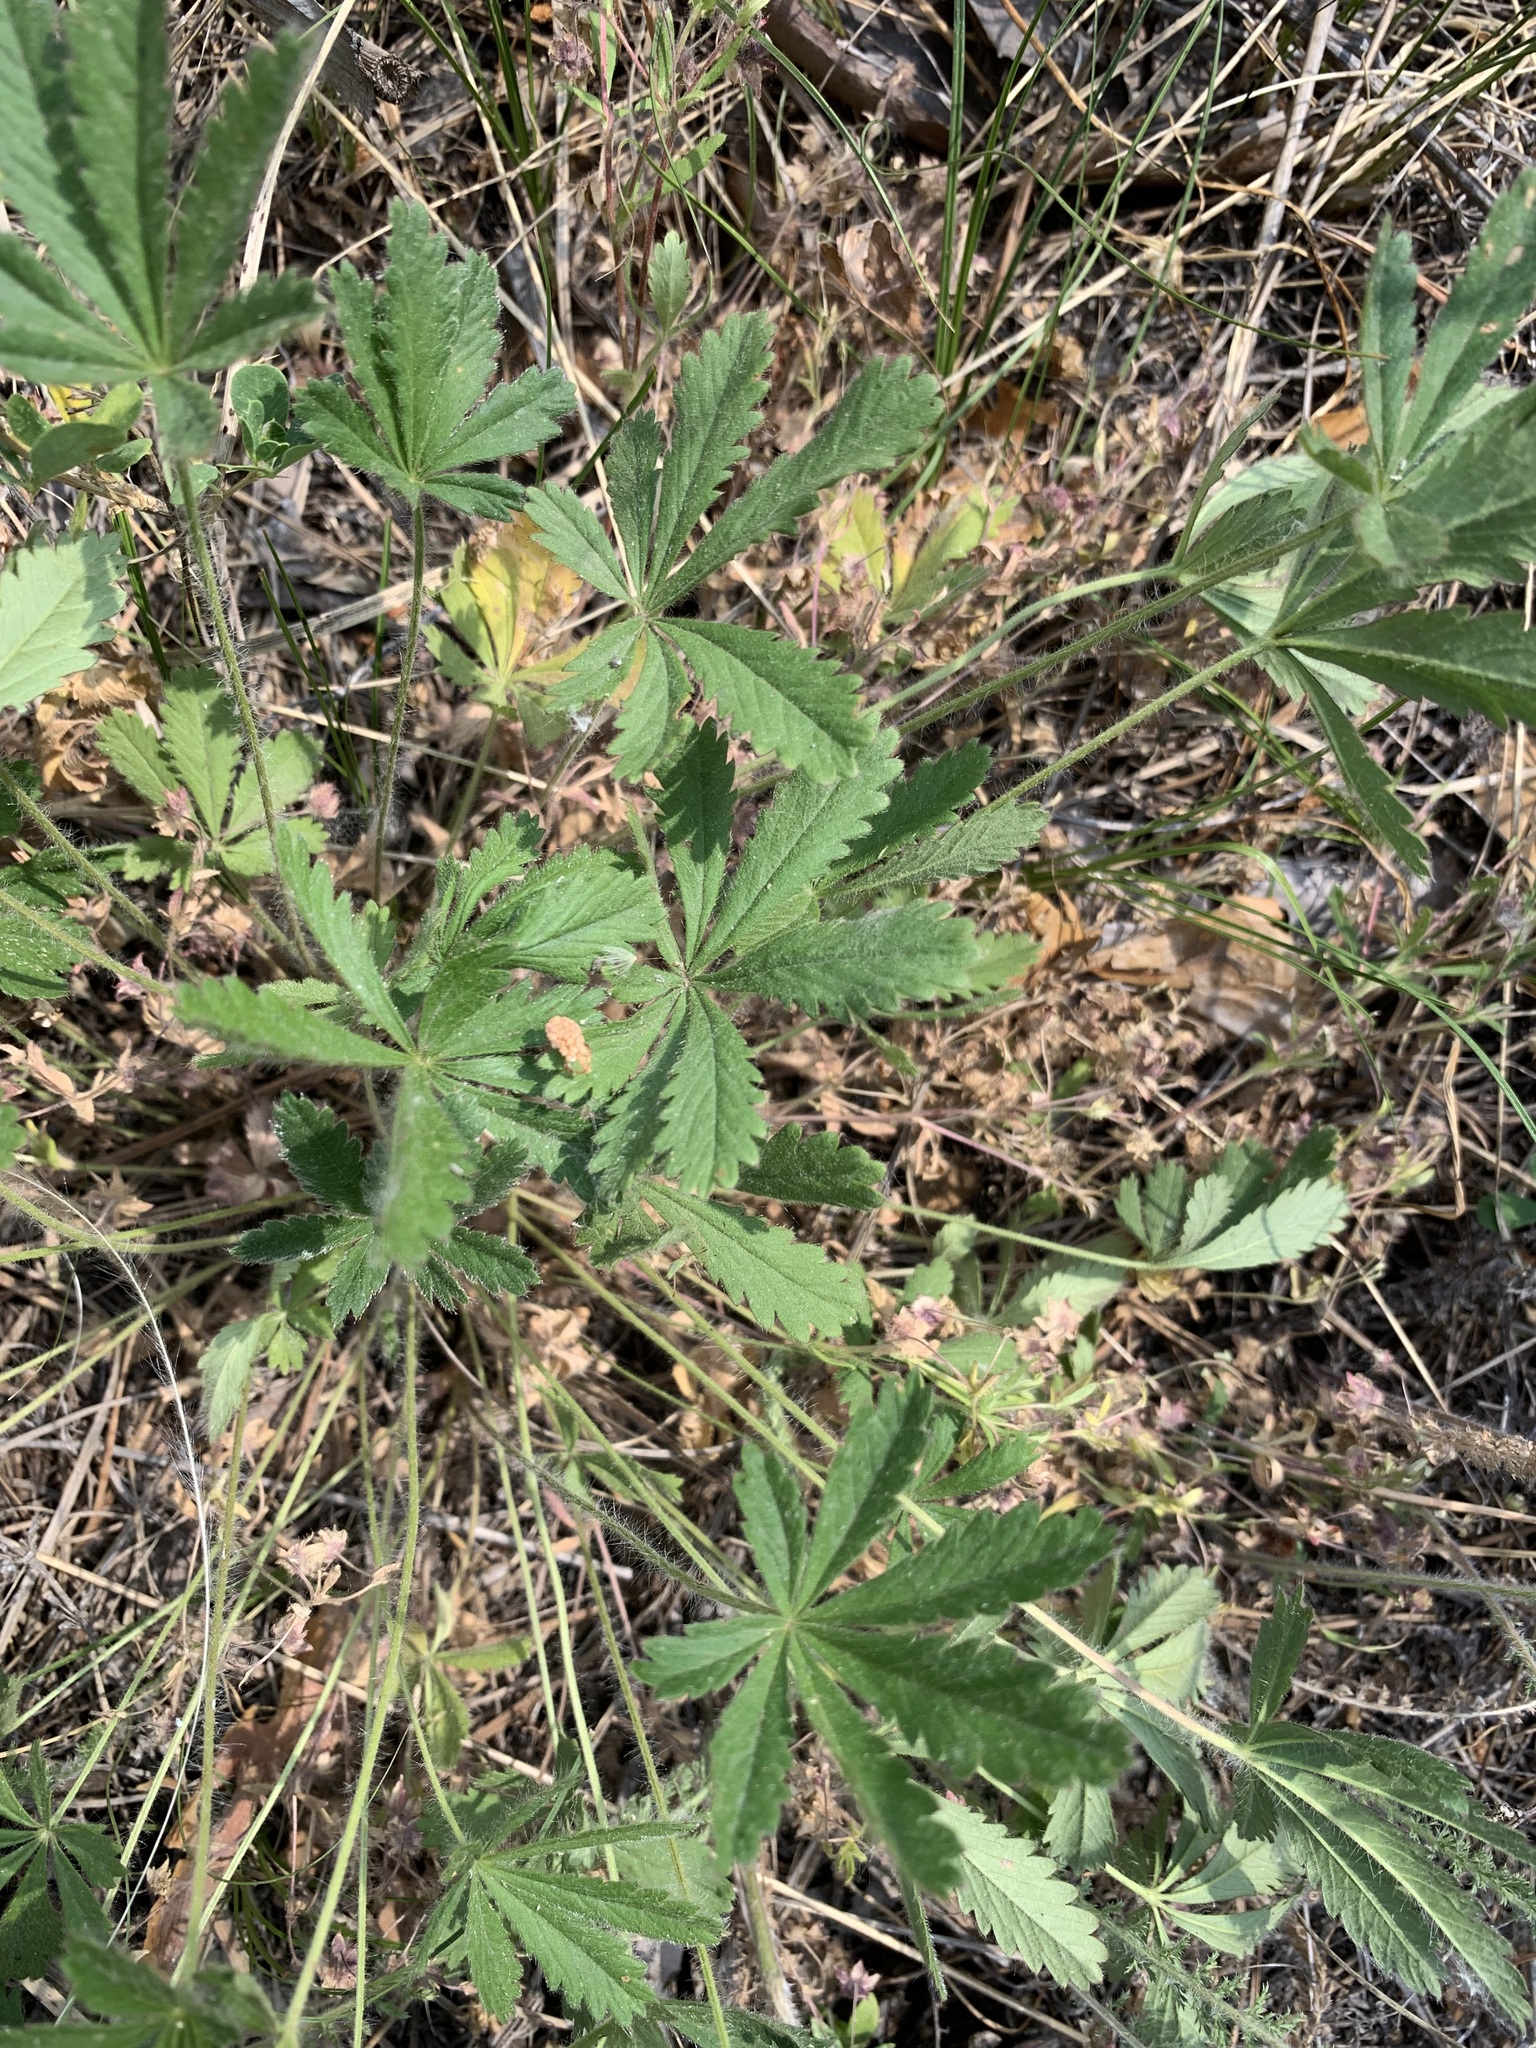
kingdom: Plantae
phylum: Tracheophyta
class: Magnoliopsida
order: Rosales
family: Rosaceae
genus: Potentilla
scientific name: Potentilla humifusa
